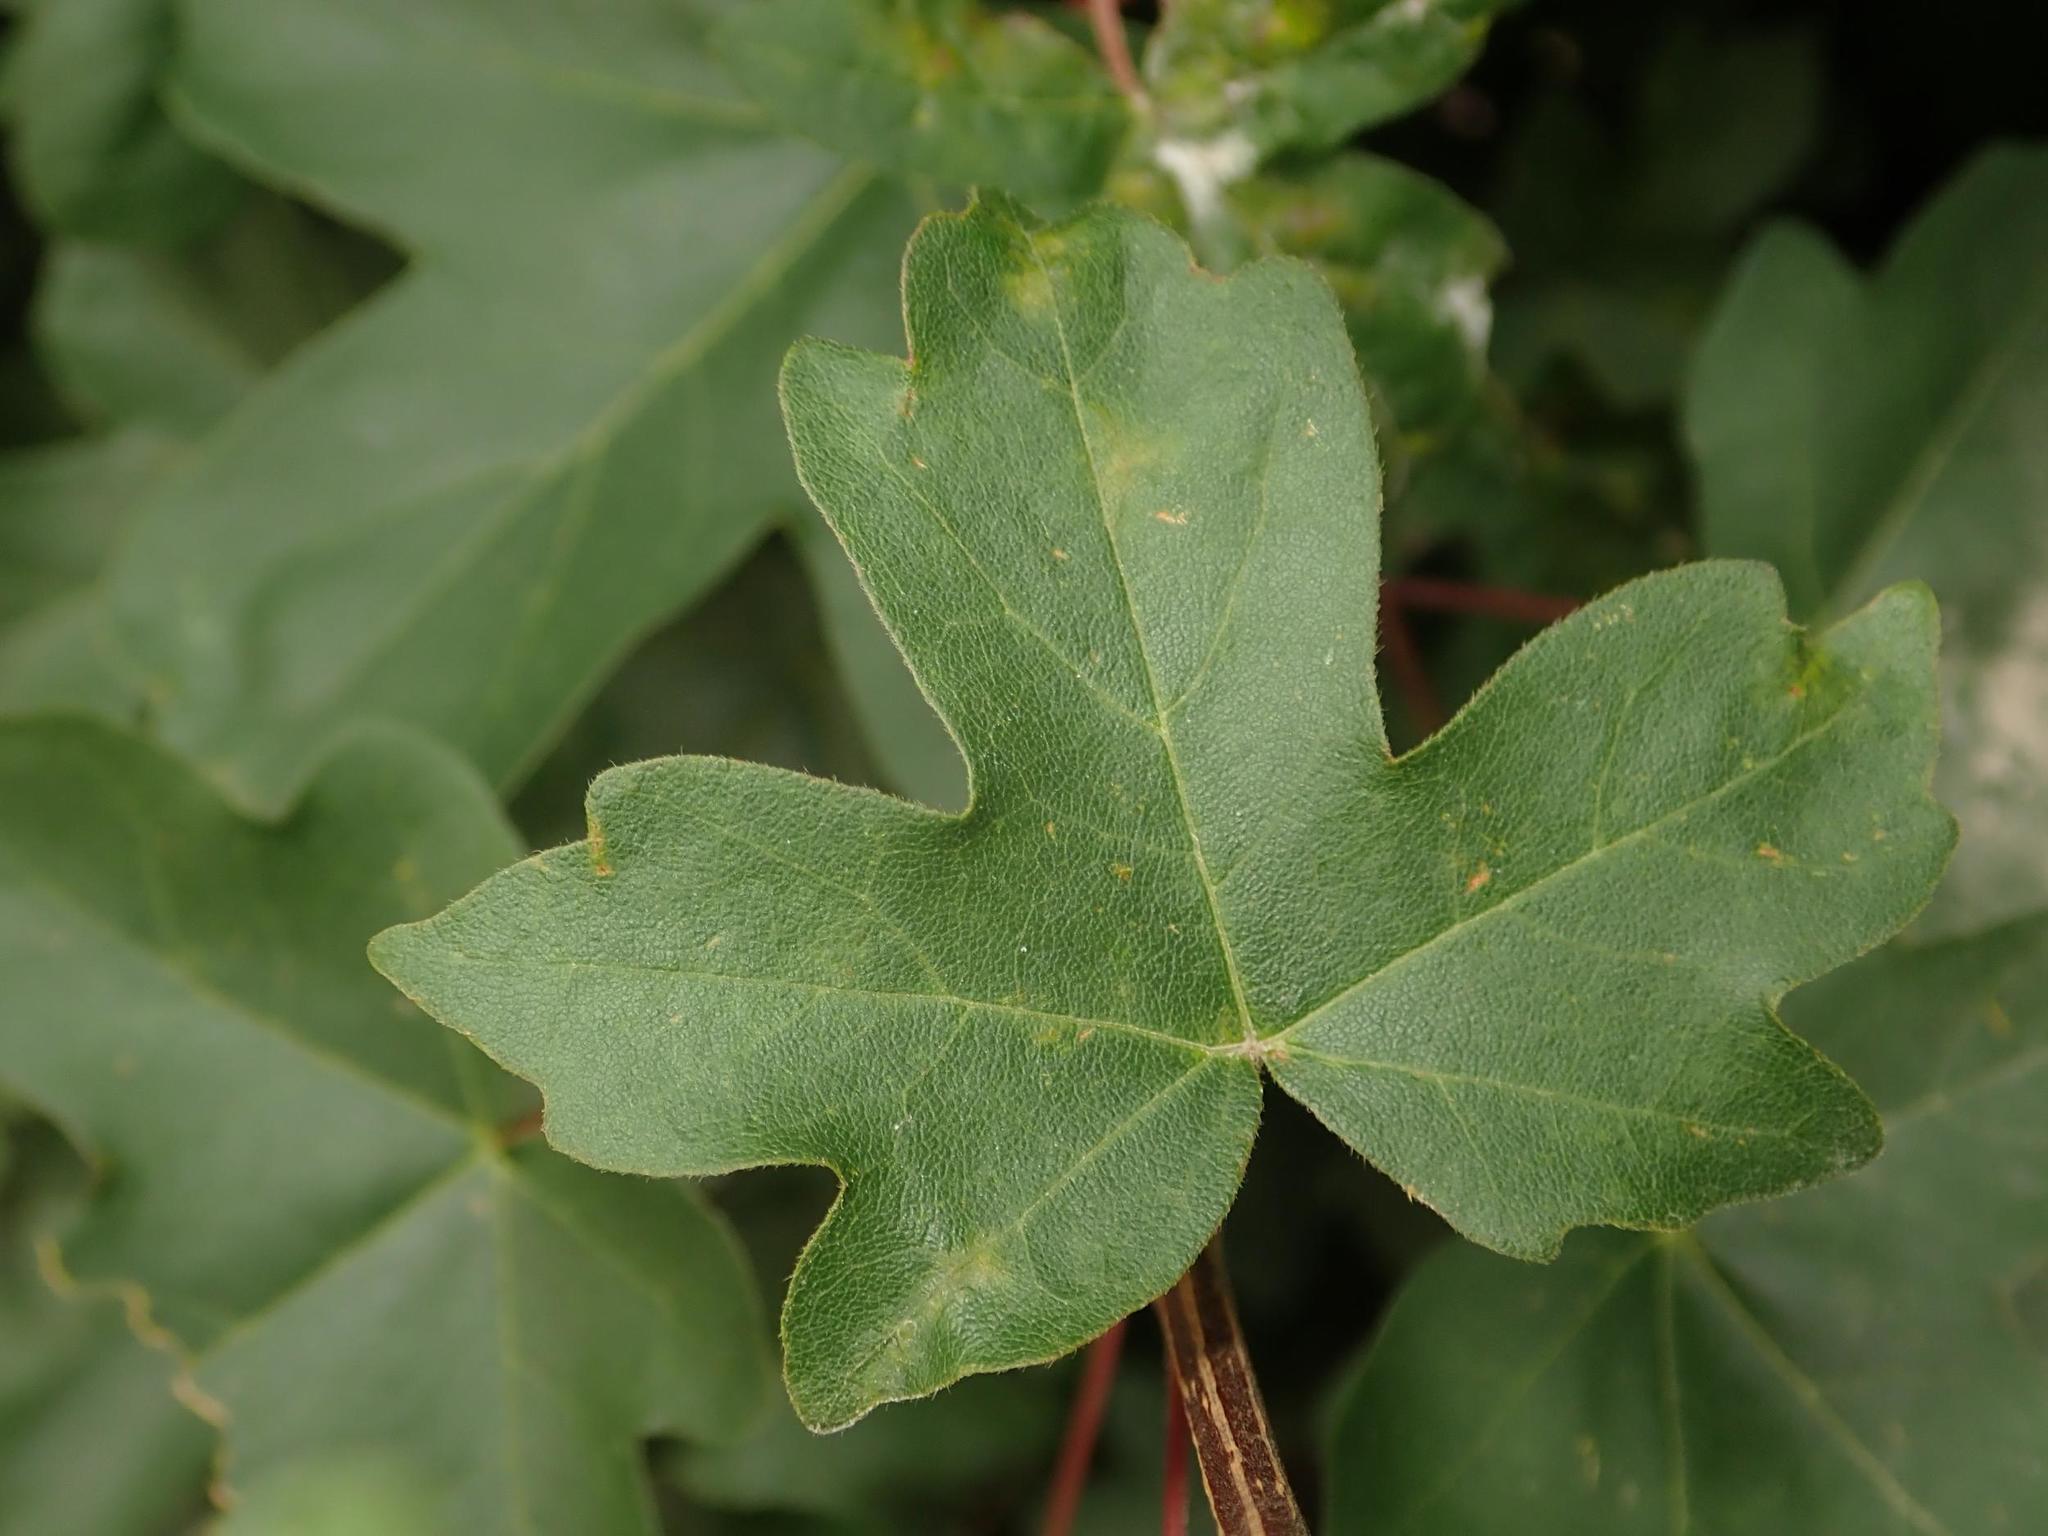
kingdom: Plantae
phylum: Tracheophyta
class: Magnoliopsida
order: Sapindales
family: Sapindaceae
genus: Acer
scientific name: Acer campestre
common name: Field maple
